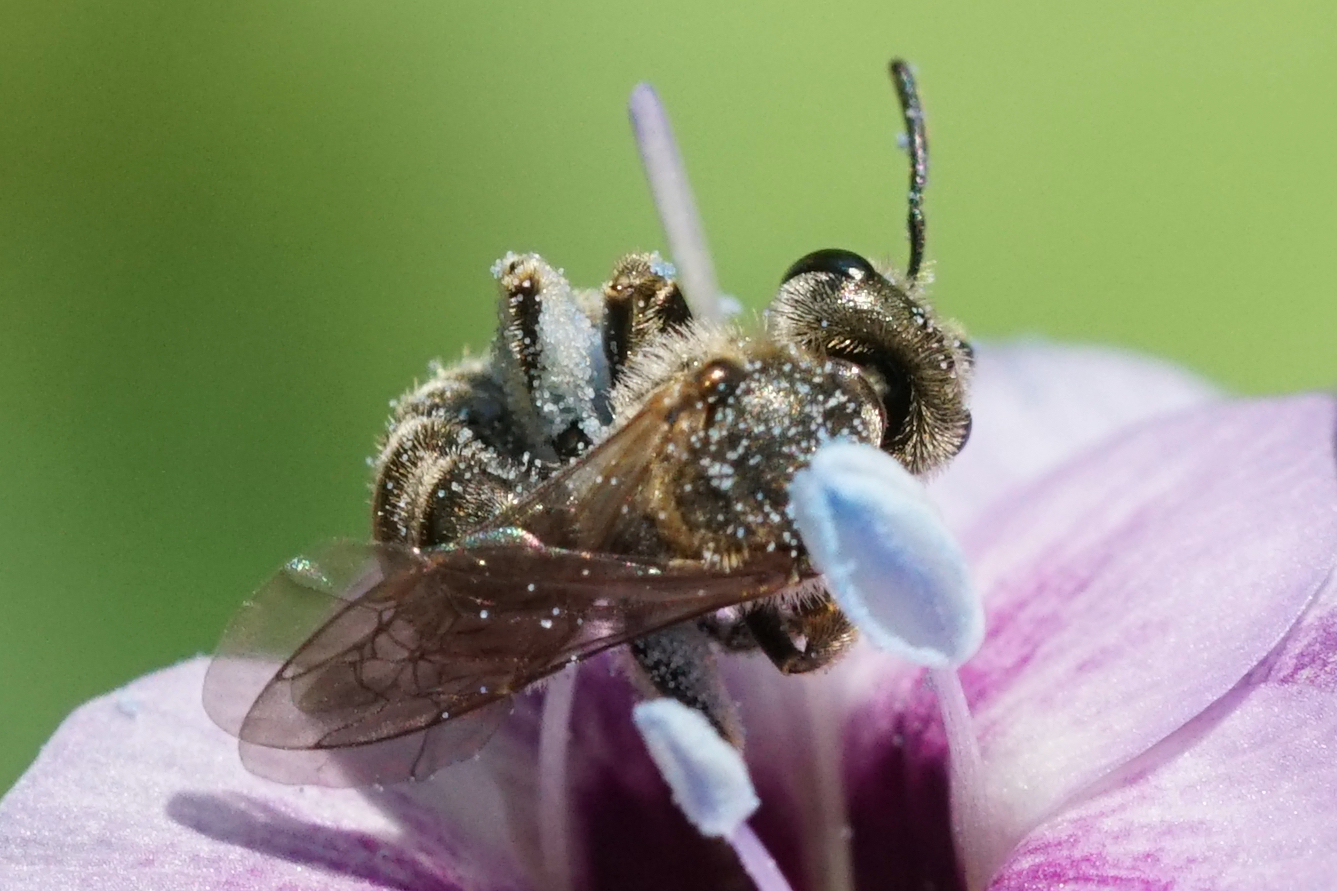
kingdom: Animalia
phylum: Arthropoda
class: Insecta
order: Hymenoptera
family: Halictidae
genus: Halictus
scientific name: Halictus confusus
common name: Southern bronze furrow bee
